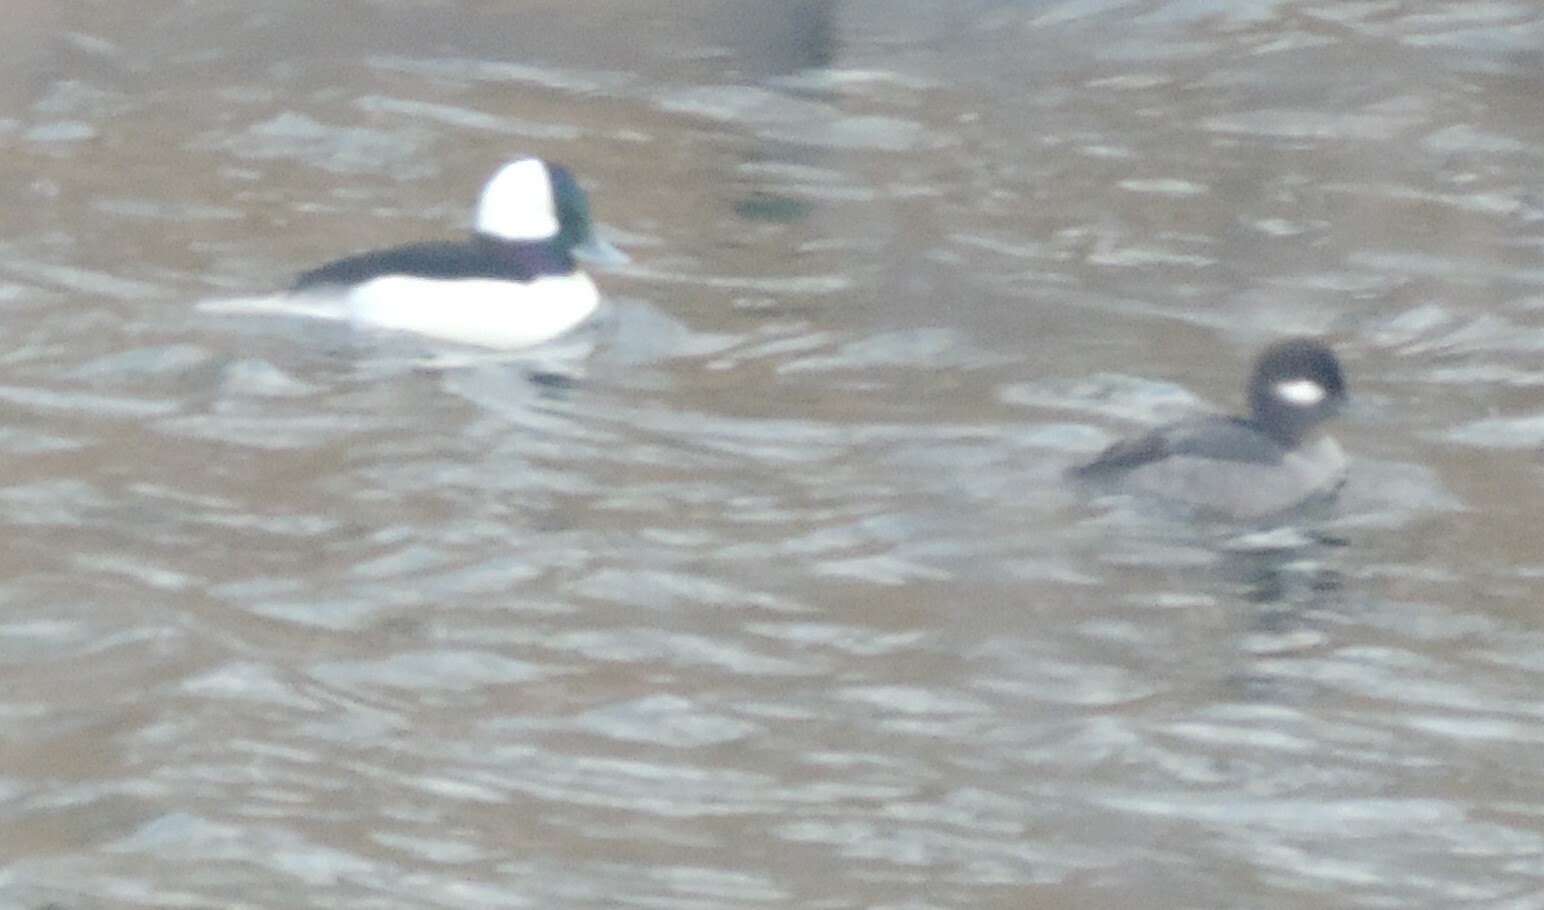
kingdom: Animalia
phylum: Chordata
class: Aves
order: Anseriformes
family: Anatidae
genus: Bucephala
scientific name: Bucephala albeola
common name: Bufflehead
